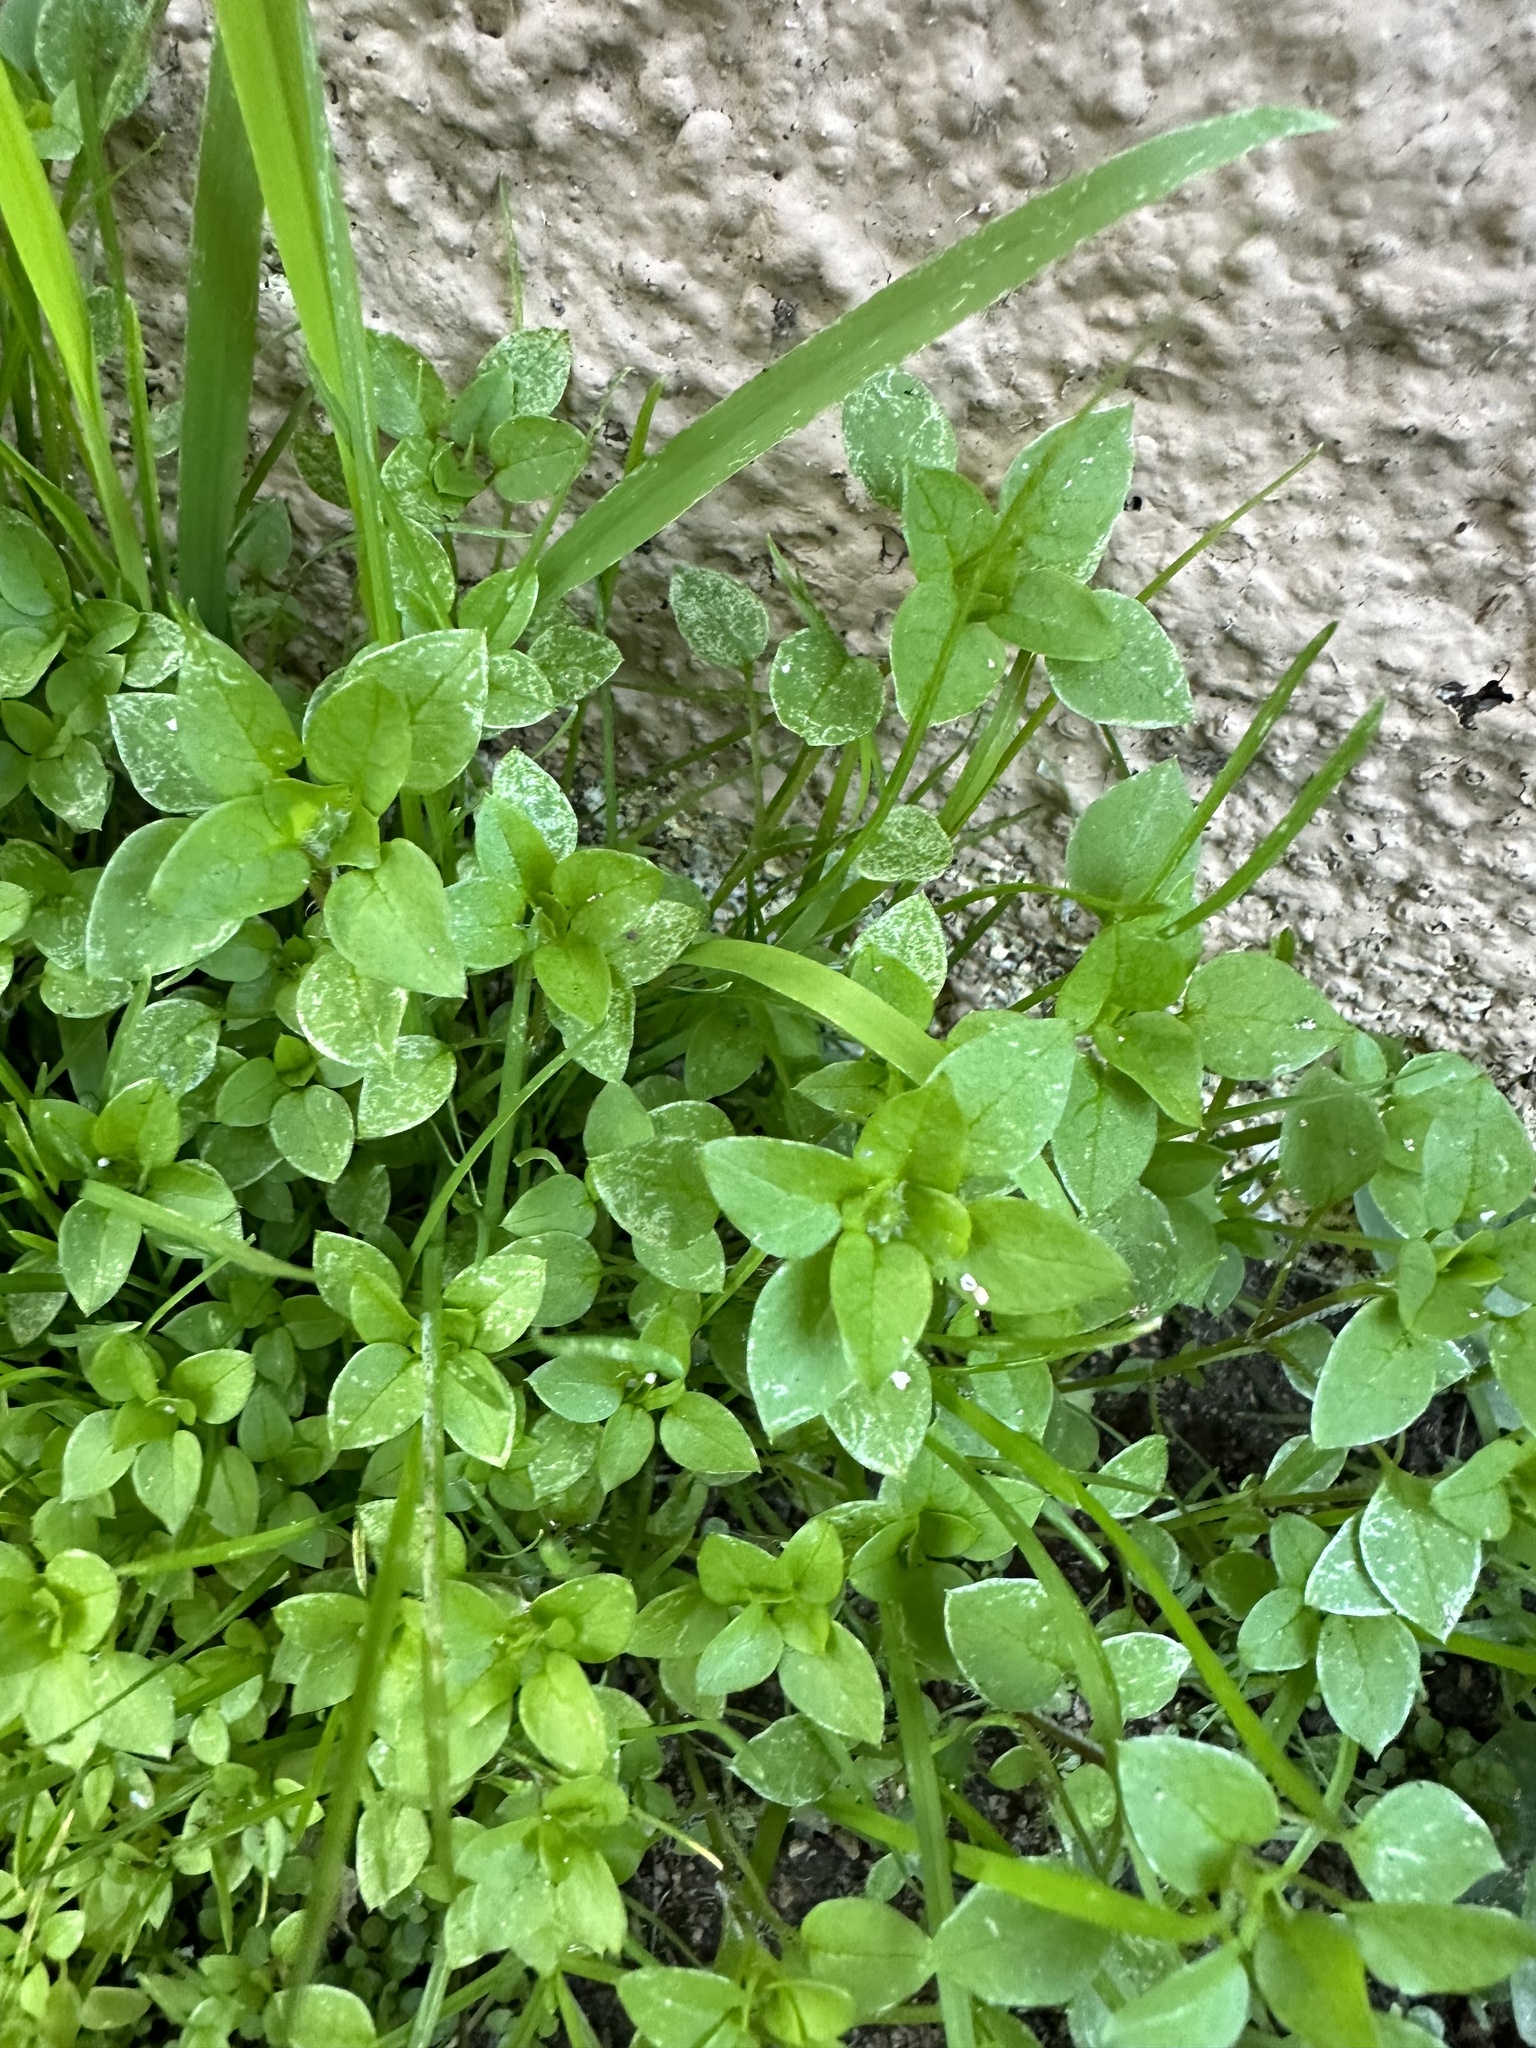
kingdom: Plantae
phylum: Tracheophyta
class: Magnoliopsida
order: Caryophyllales
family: Caryophyllaceae
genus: Stellaria
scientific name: Stellaria media
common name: Common chickweed
